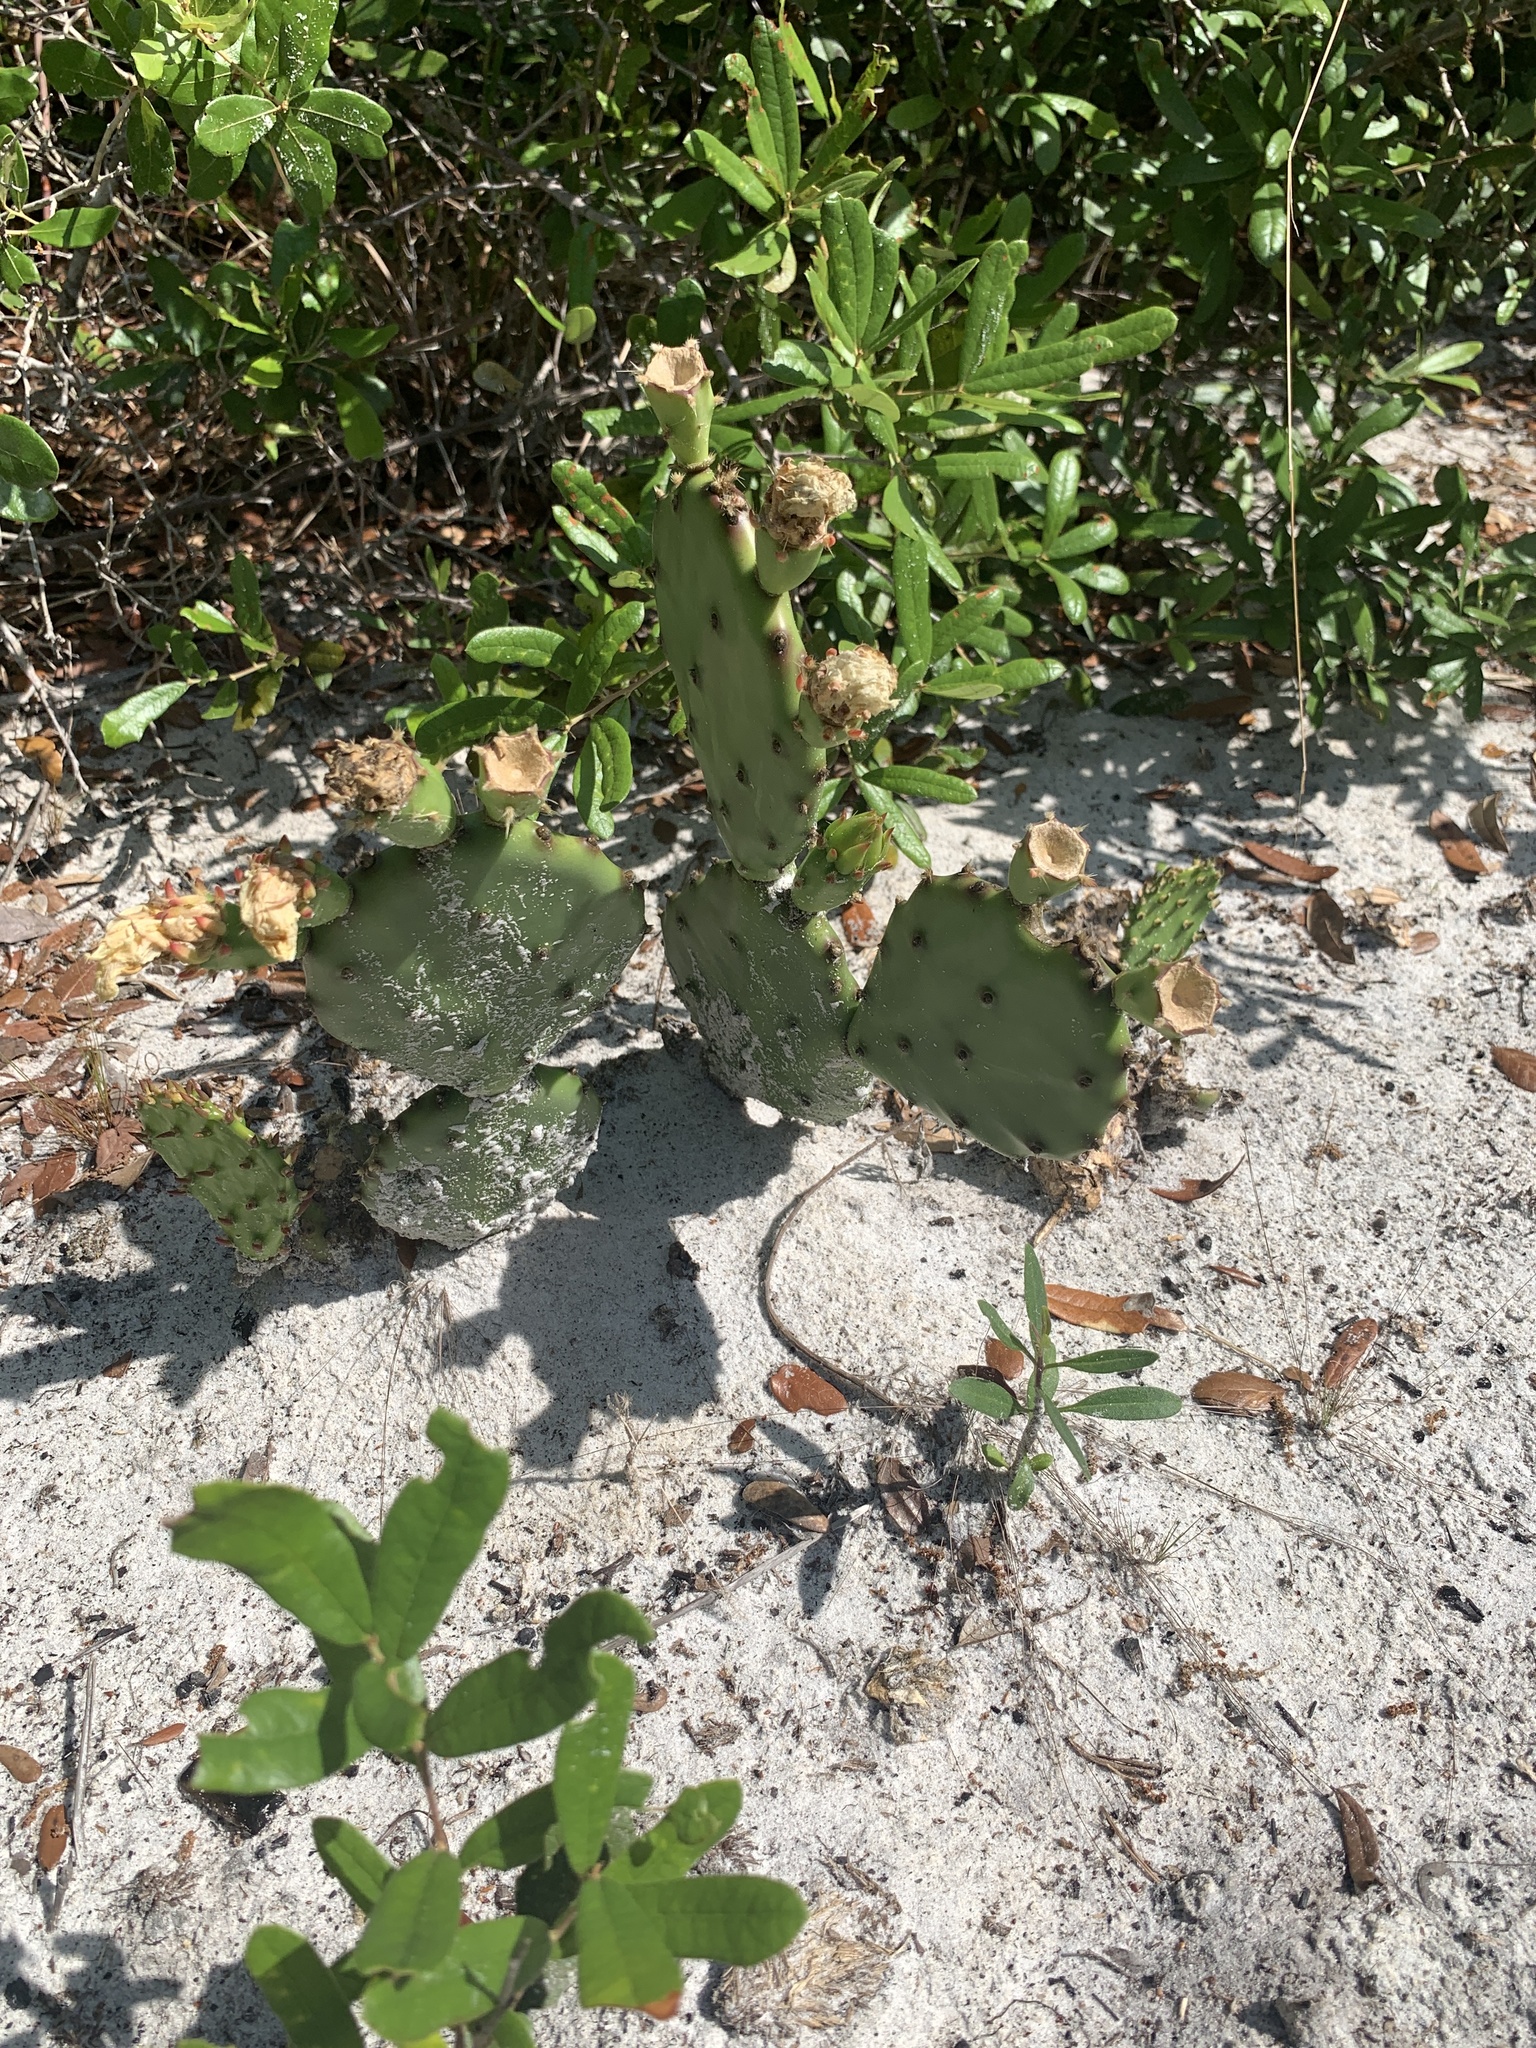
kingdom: Plantae
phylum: Tracheophyta
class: Magnoliopsida
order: Caryophyllales
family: Cactaceae
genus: Opuntia
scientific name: Opuntia austrina
